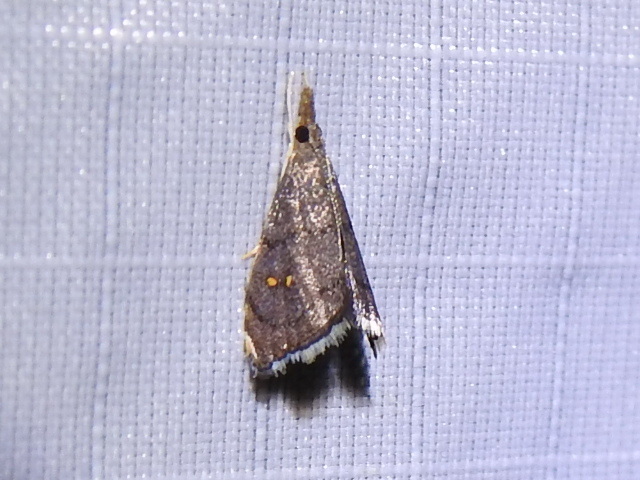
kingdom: Animalia
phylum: Arthropoda
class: Insecta
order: Lepidoptera
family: Crambidae
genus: Microcausta
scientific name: Microcausta bipunctalis
